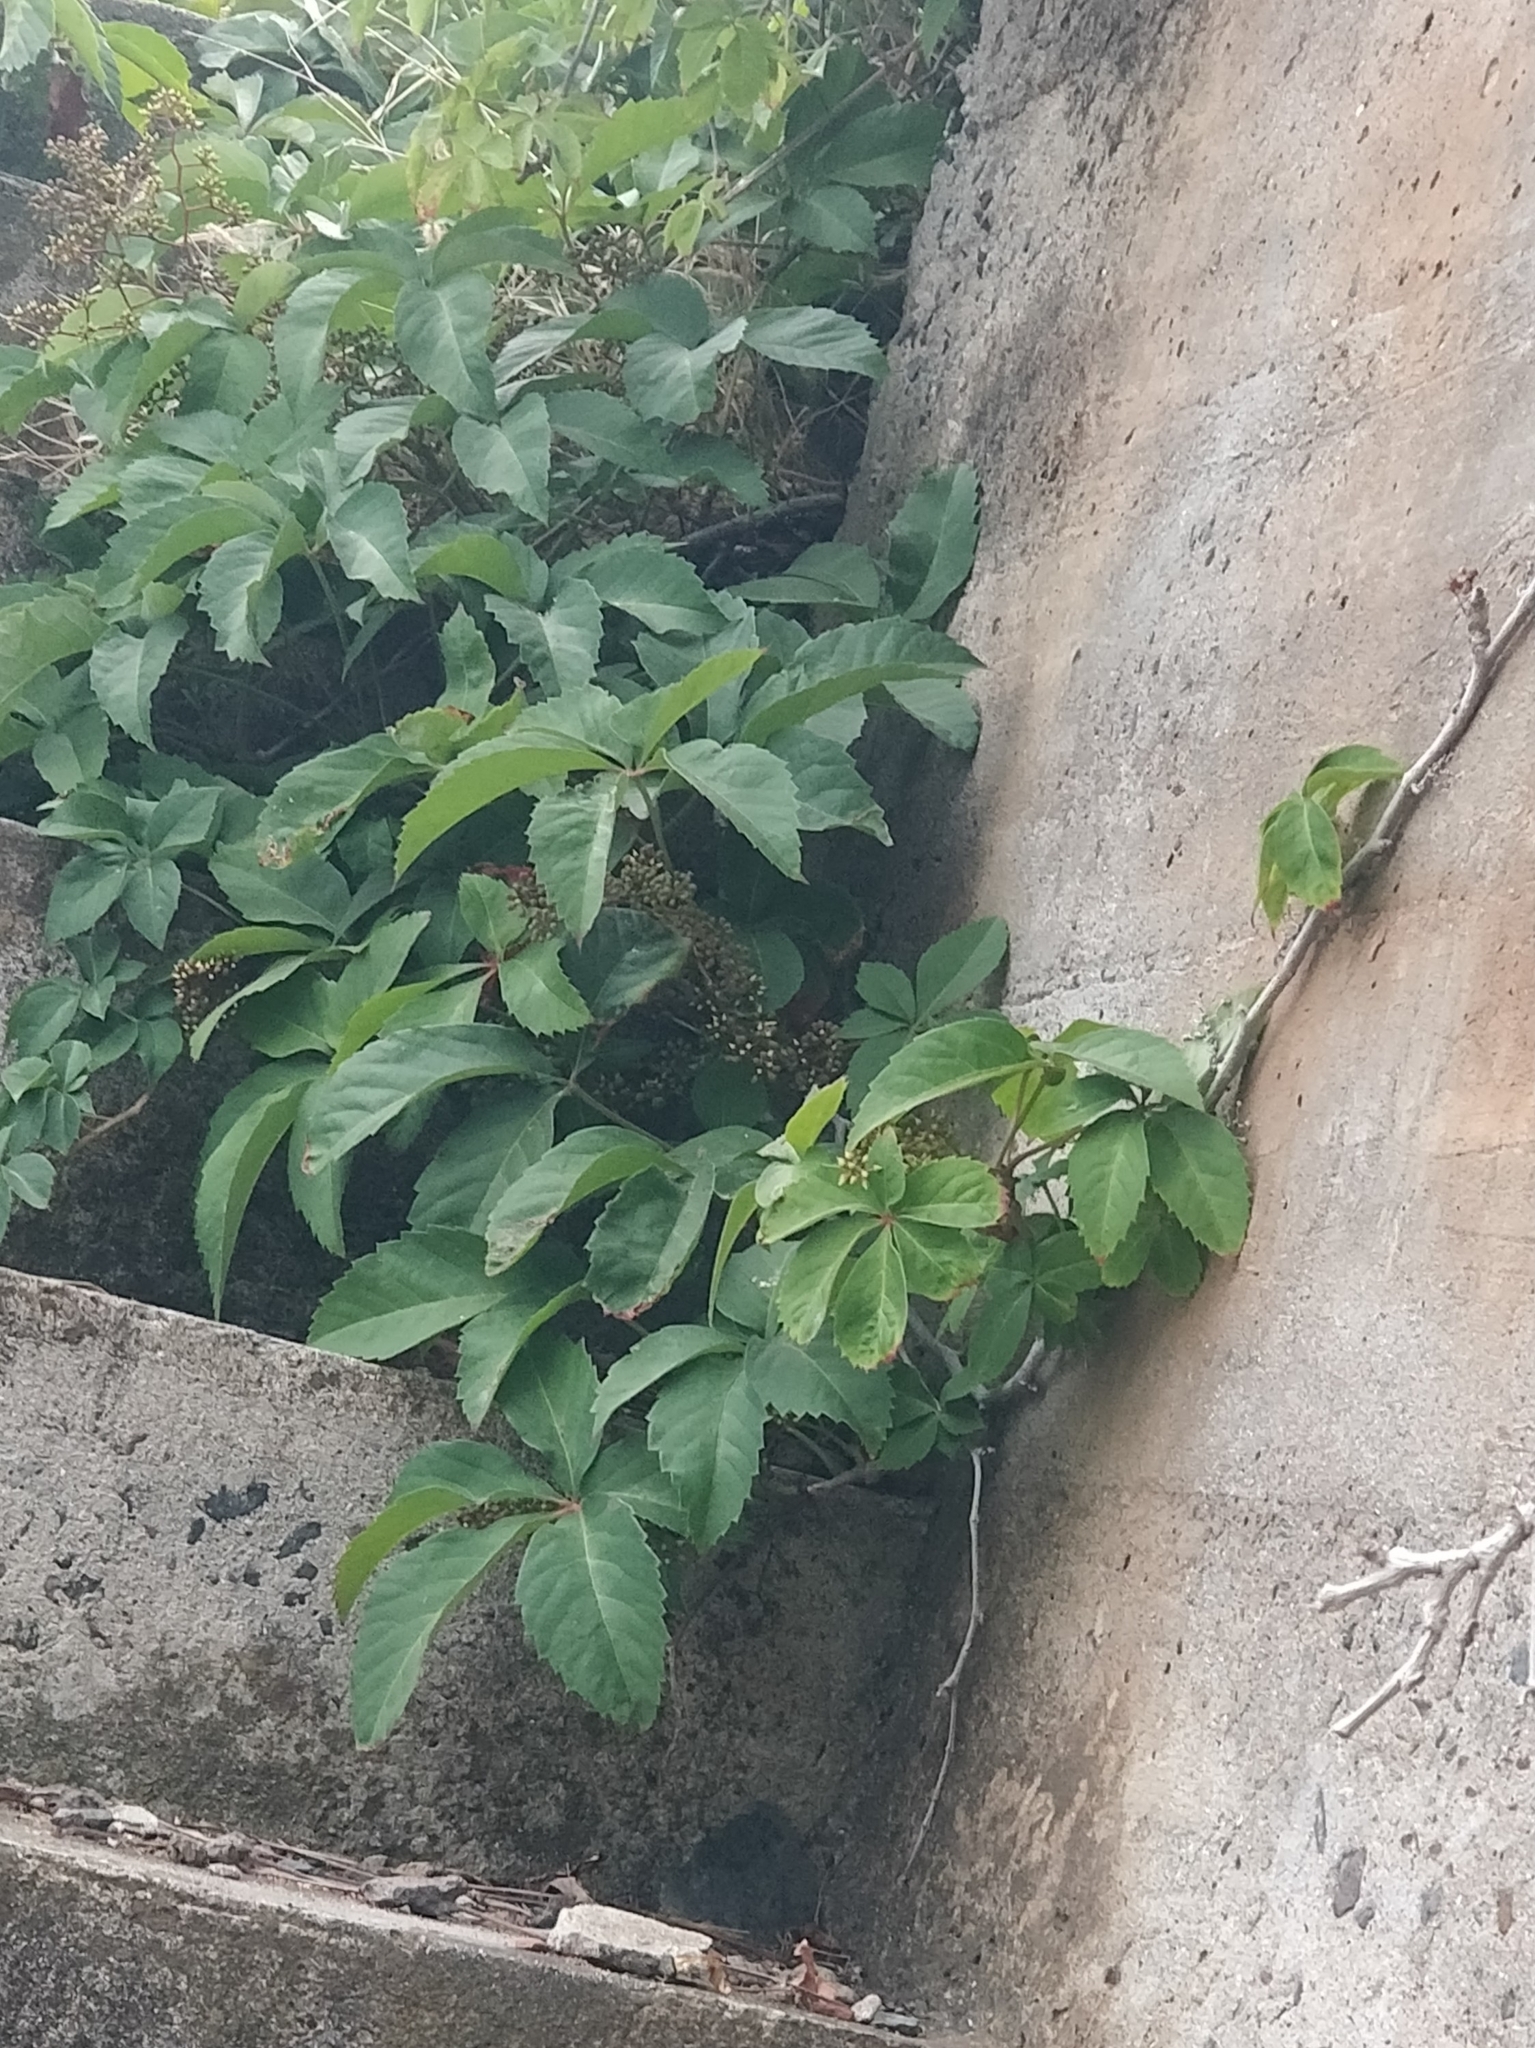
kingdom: Plantae
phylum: Tracheophyta
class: Magnoliopsida
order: Vitales
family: Vitaceae
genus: Parthenocissus
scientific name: Parthenocissus quinquefolia
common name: Virginia-creeper
